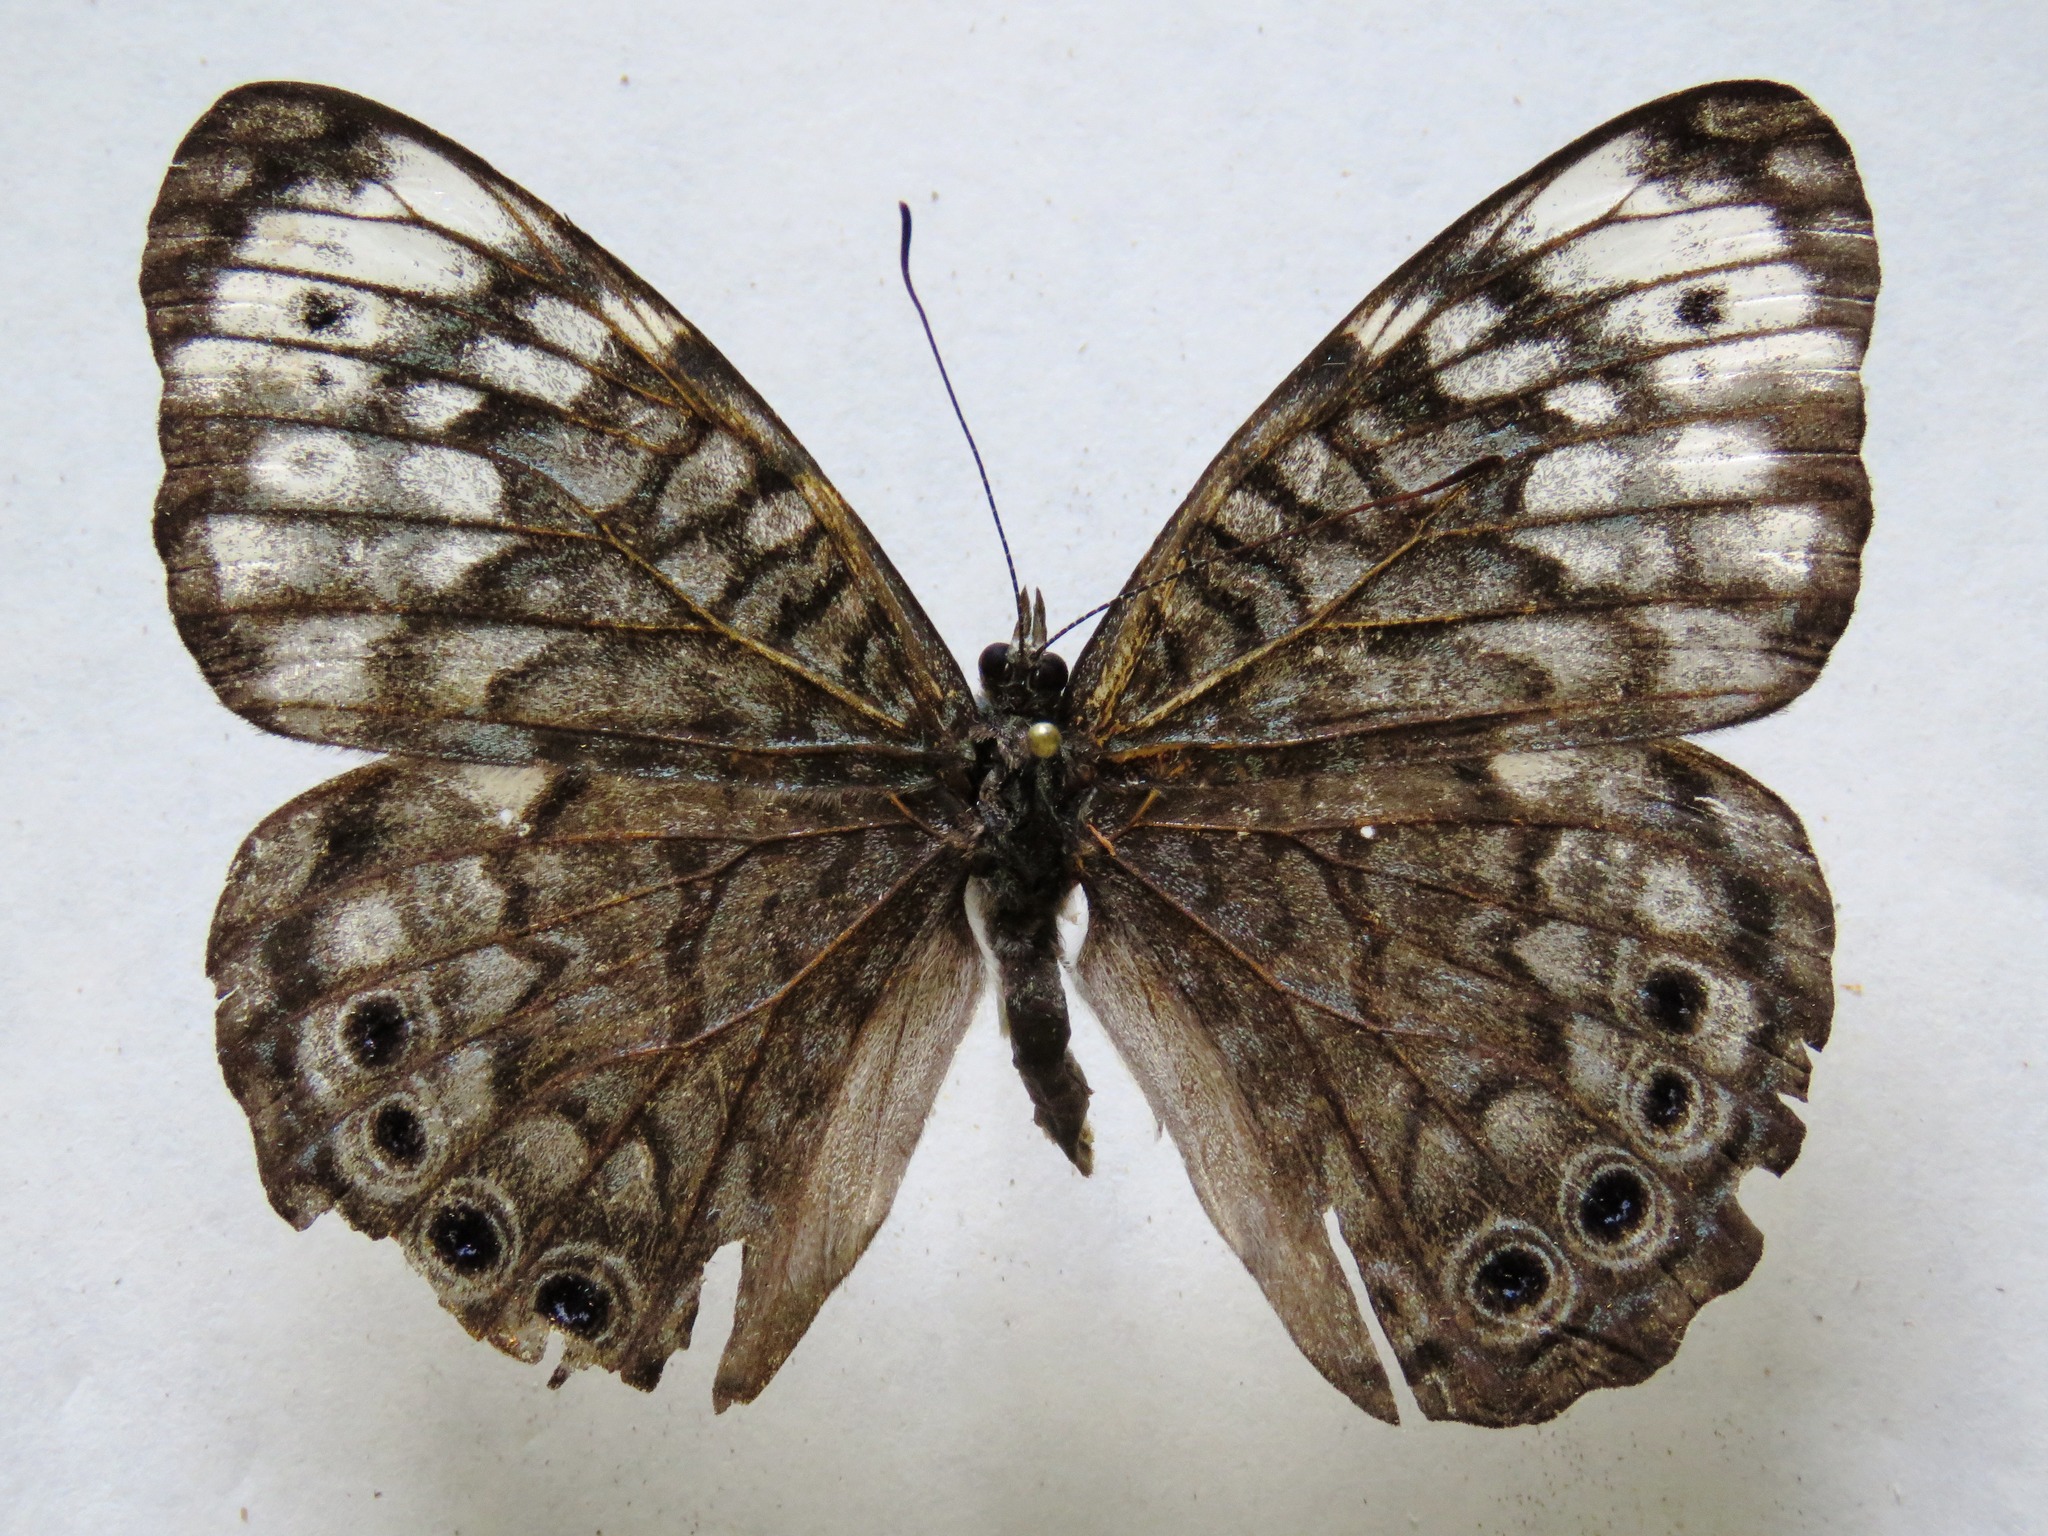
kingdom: Animalia
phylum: Arthropoda
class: Insecta
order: Lepidoptera
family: Nymphalidae
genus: Hamadryas
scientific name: Hamadryas atlantis
